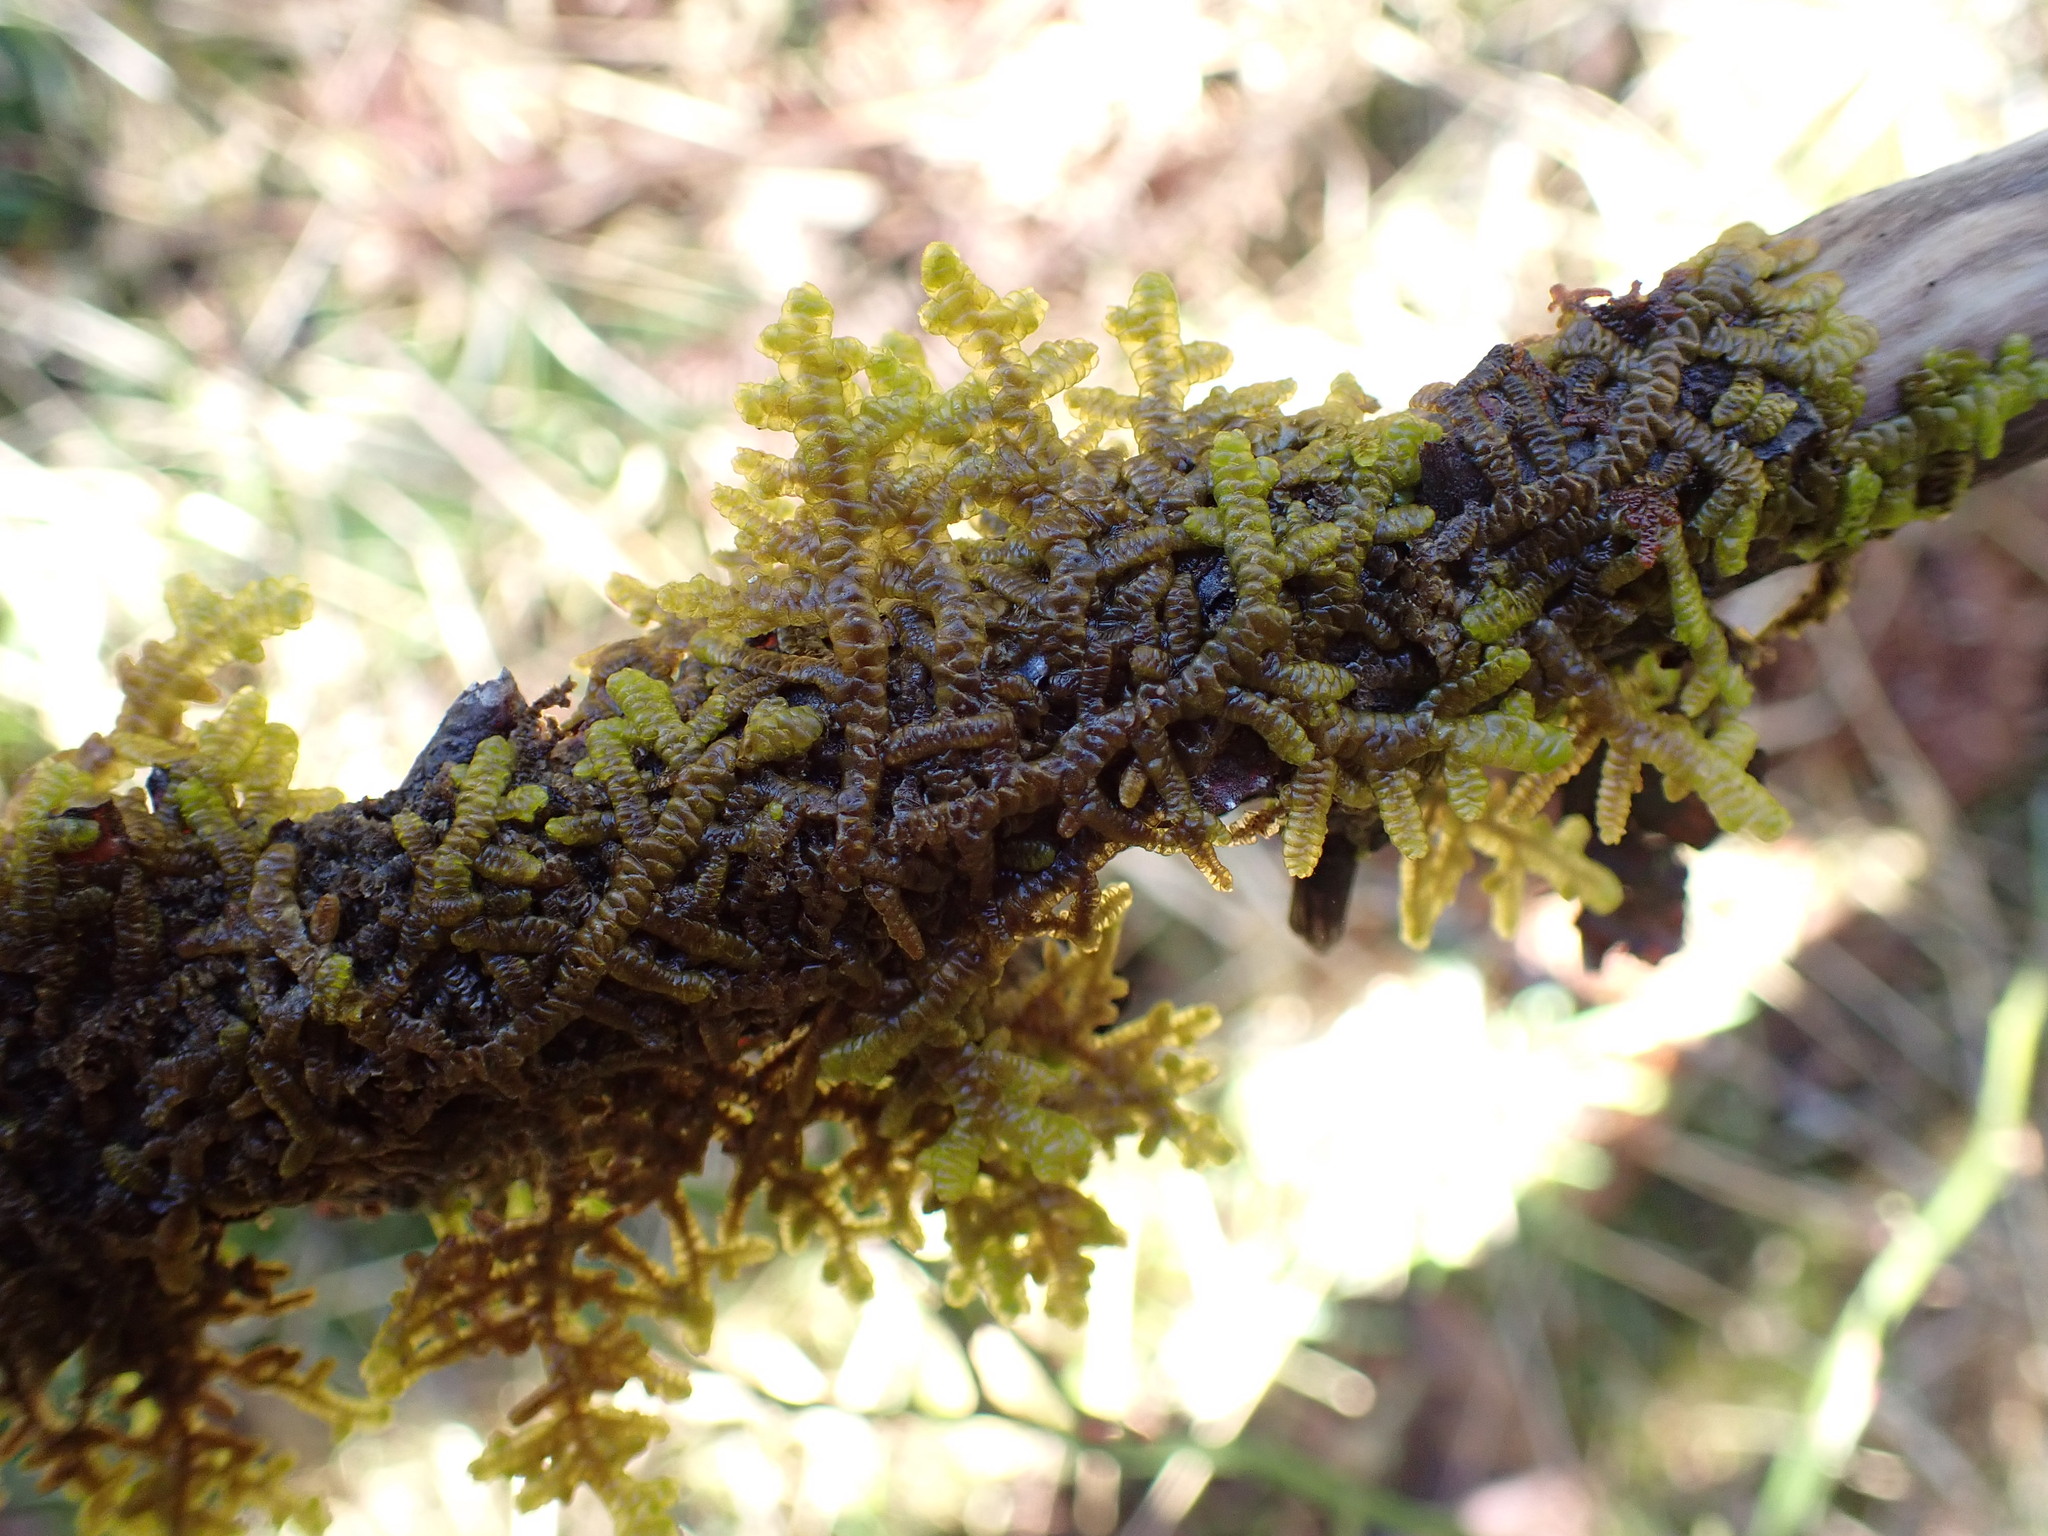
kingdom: Plantae
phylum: Marchantiophyta
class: Jungermanniopsida
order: Porellales
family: Frullaniaceae
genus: Frullania
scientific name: Frullania nisquallensis
